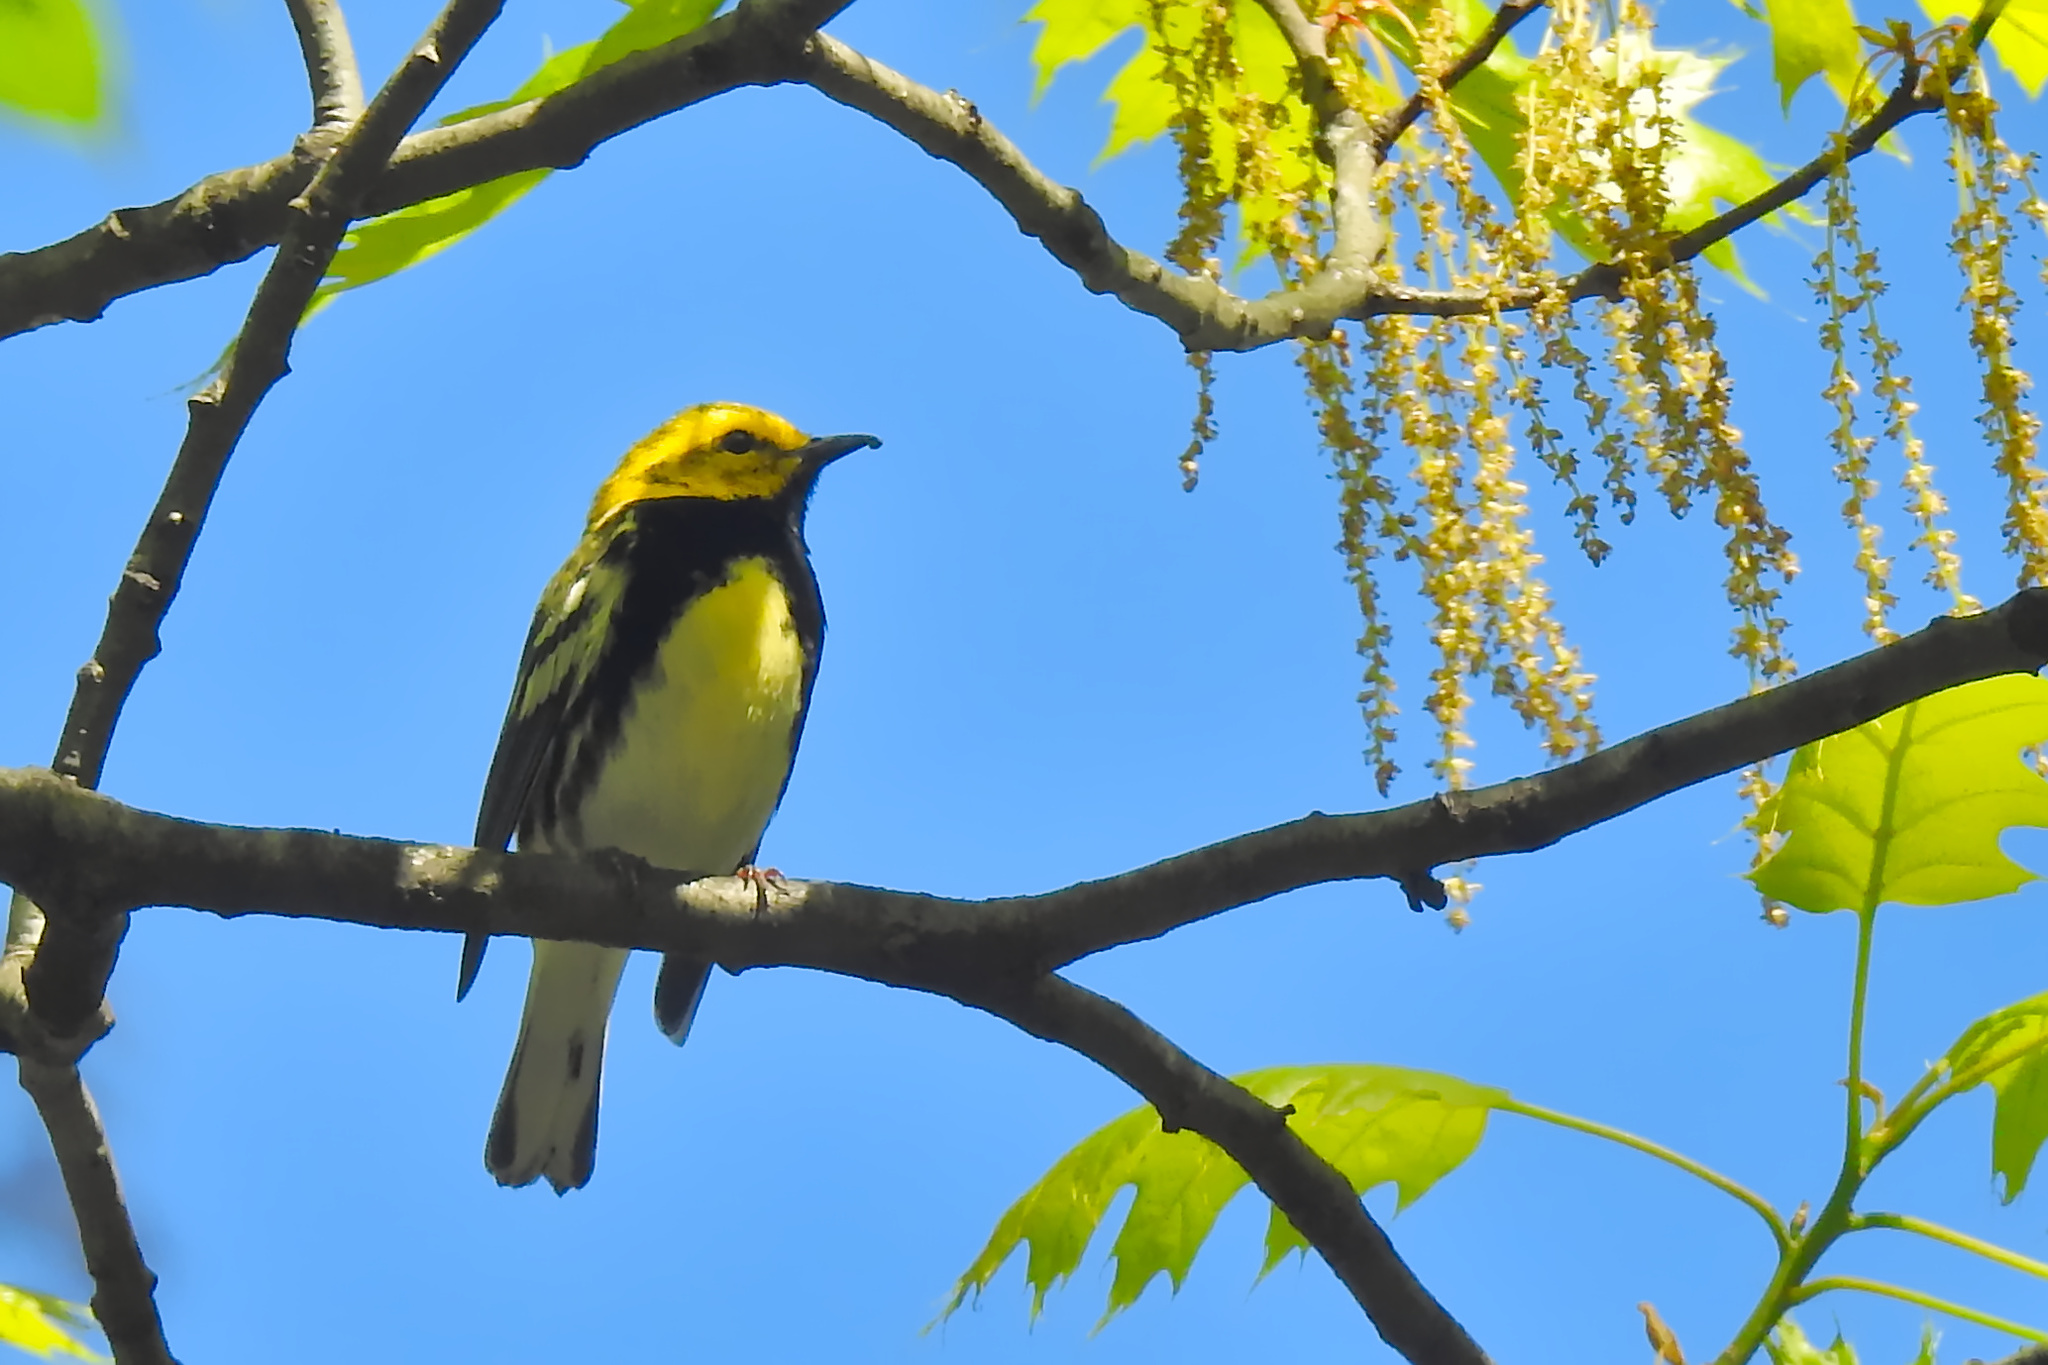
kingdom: Animalia
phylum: Chordata
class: Aves
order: Passeriformes
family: Parulidae
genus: Setophaga
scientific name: Setophaga virens
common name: Black-throated green warbler
